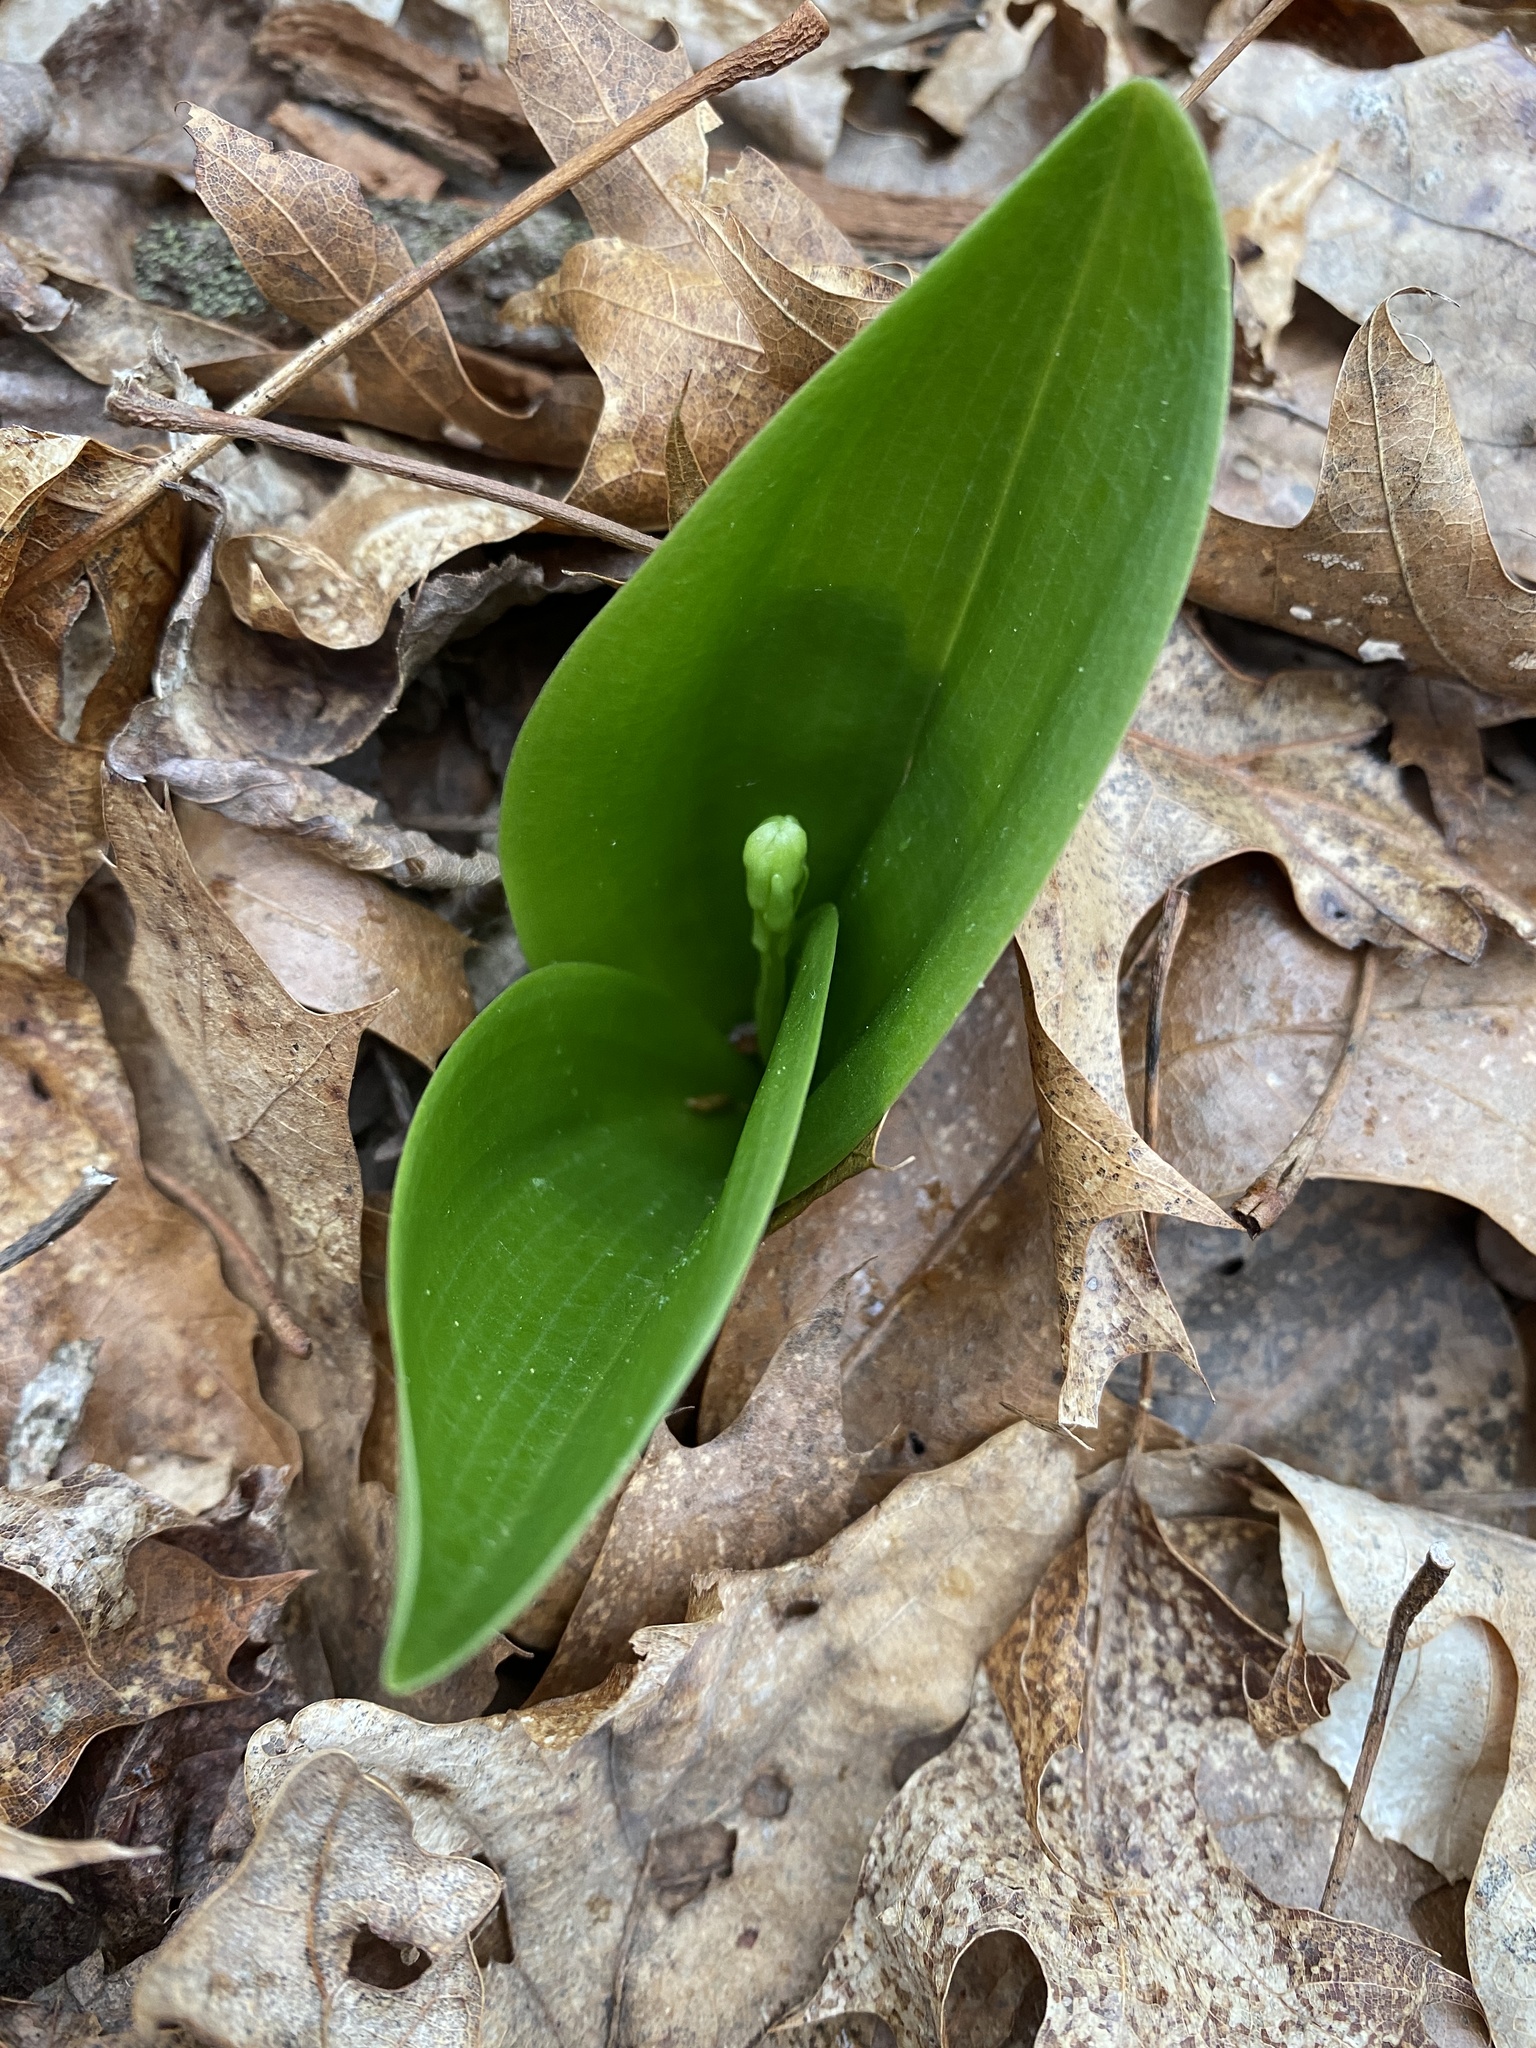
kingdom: Plantae
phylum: Tracheophyta
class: Liliopsida
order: Asparagales
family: Orchidaceae
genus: Platanthera
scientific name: Platanthera orbiculata
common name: Large round-leaved orchid
